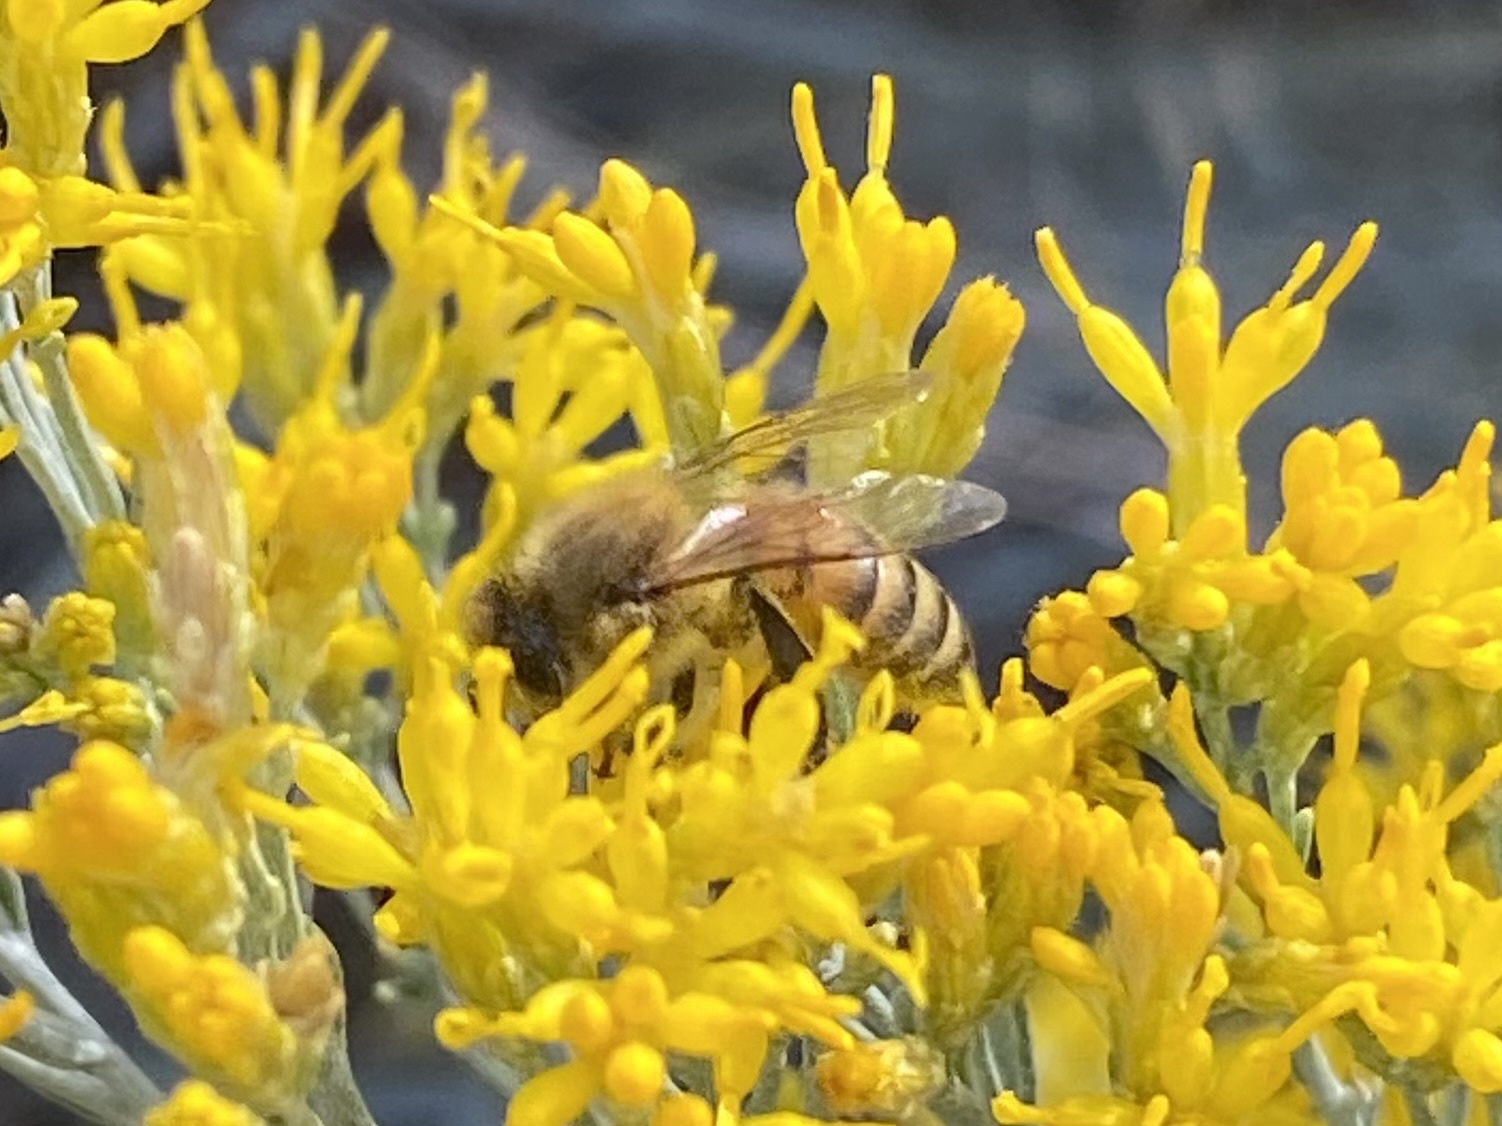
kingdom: Animalia
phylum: Arthropoda
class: Insecta
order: Hymenoptera
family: Apidae
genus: Apis
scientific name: Apis mellifera
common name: Honey bee
